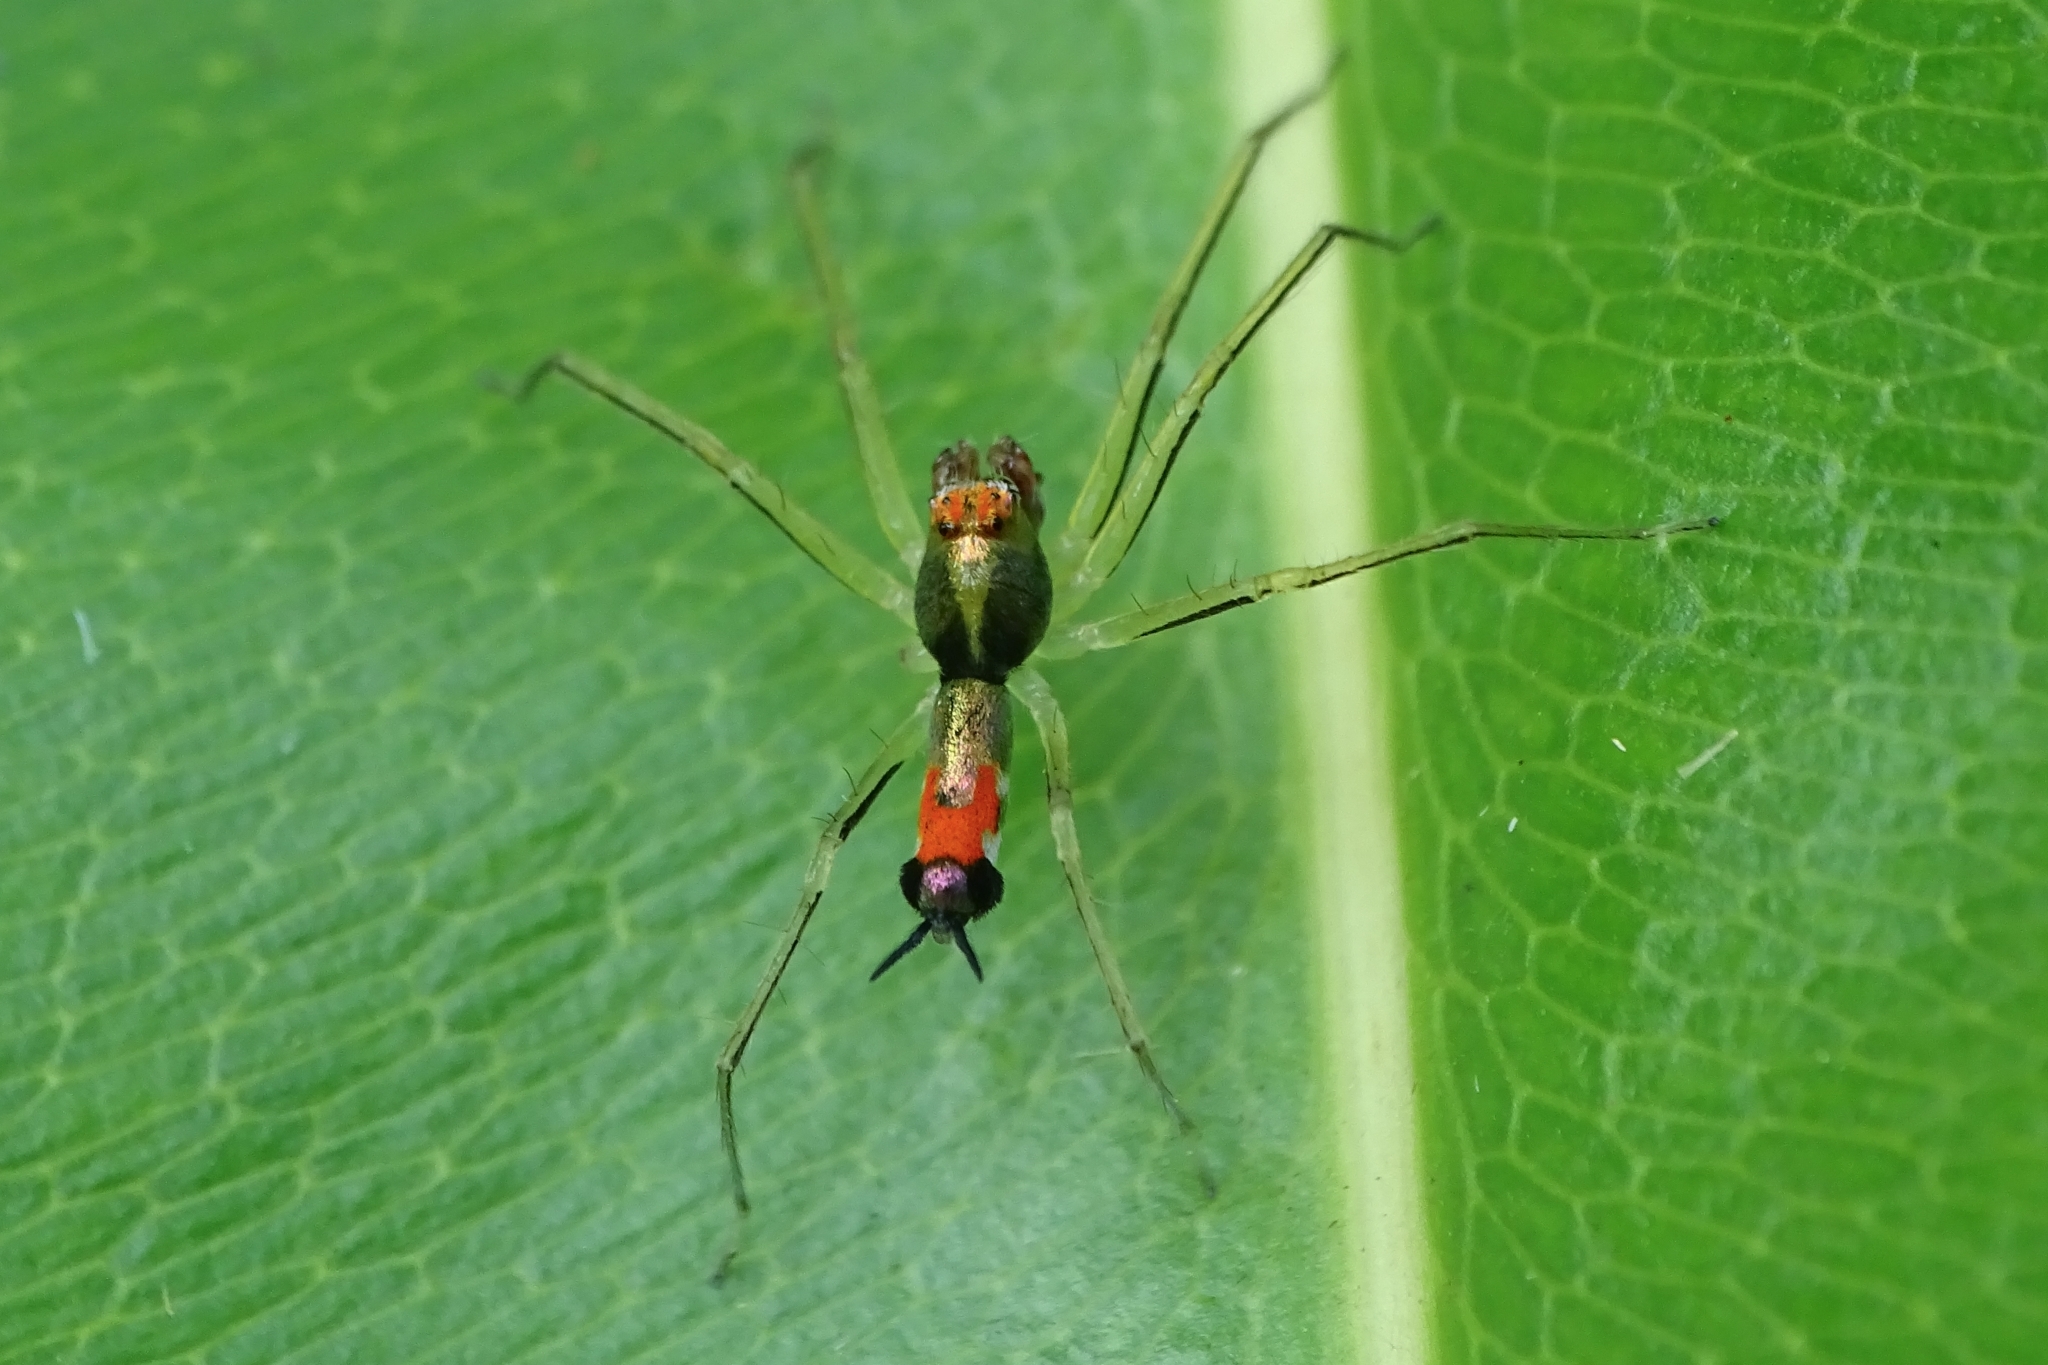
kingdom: Animalia
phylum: Arthropoda
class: Arachnida
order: Araneae
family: Salticidae
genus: Asemonea
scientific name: Asemonea tenuipes
